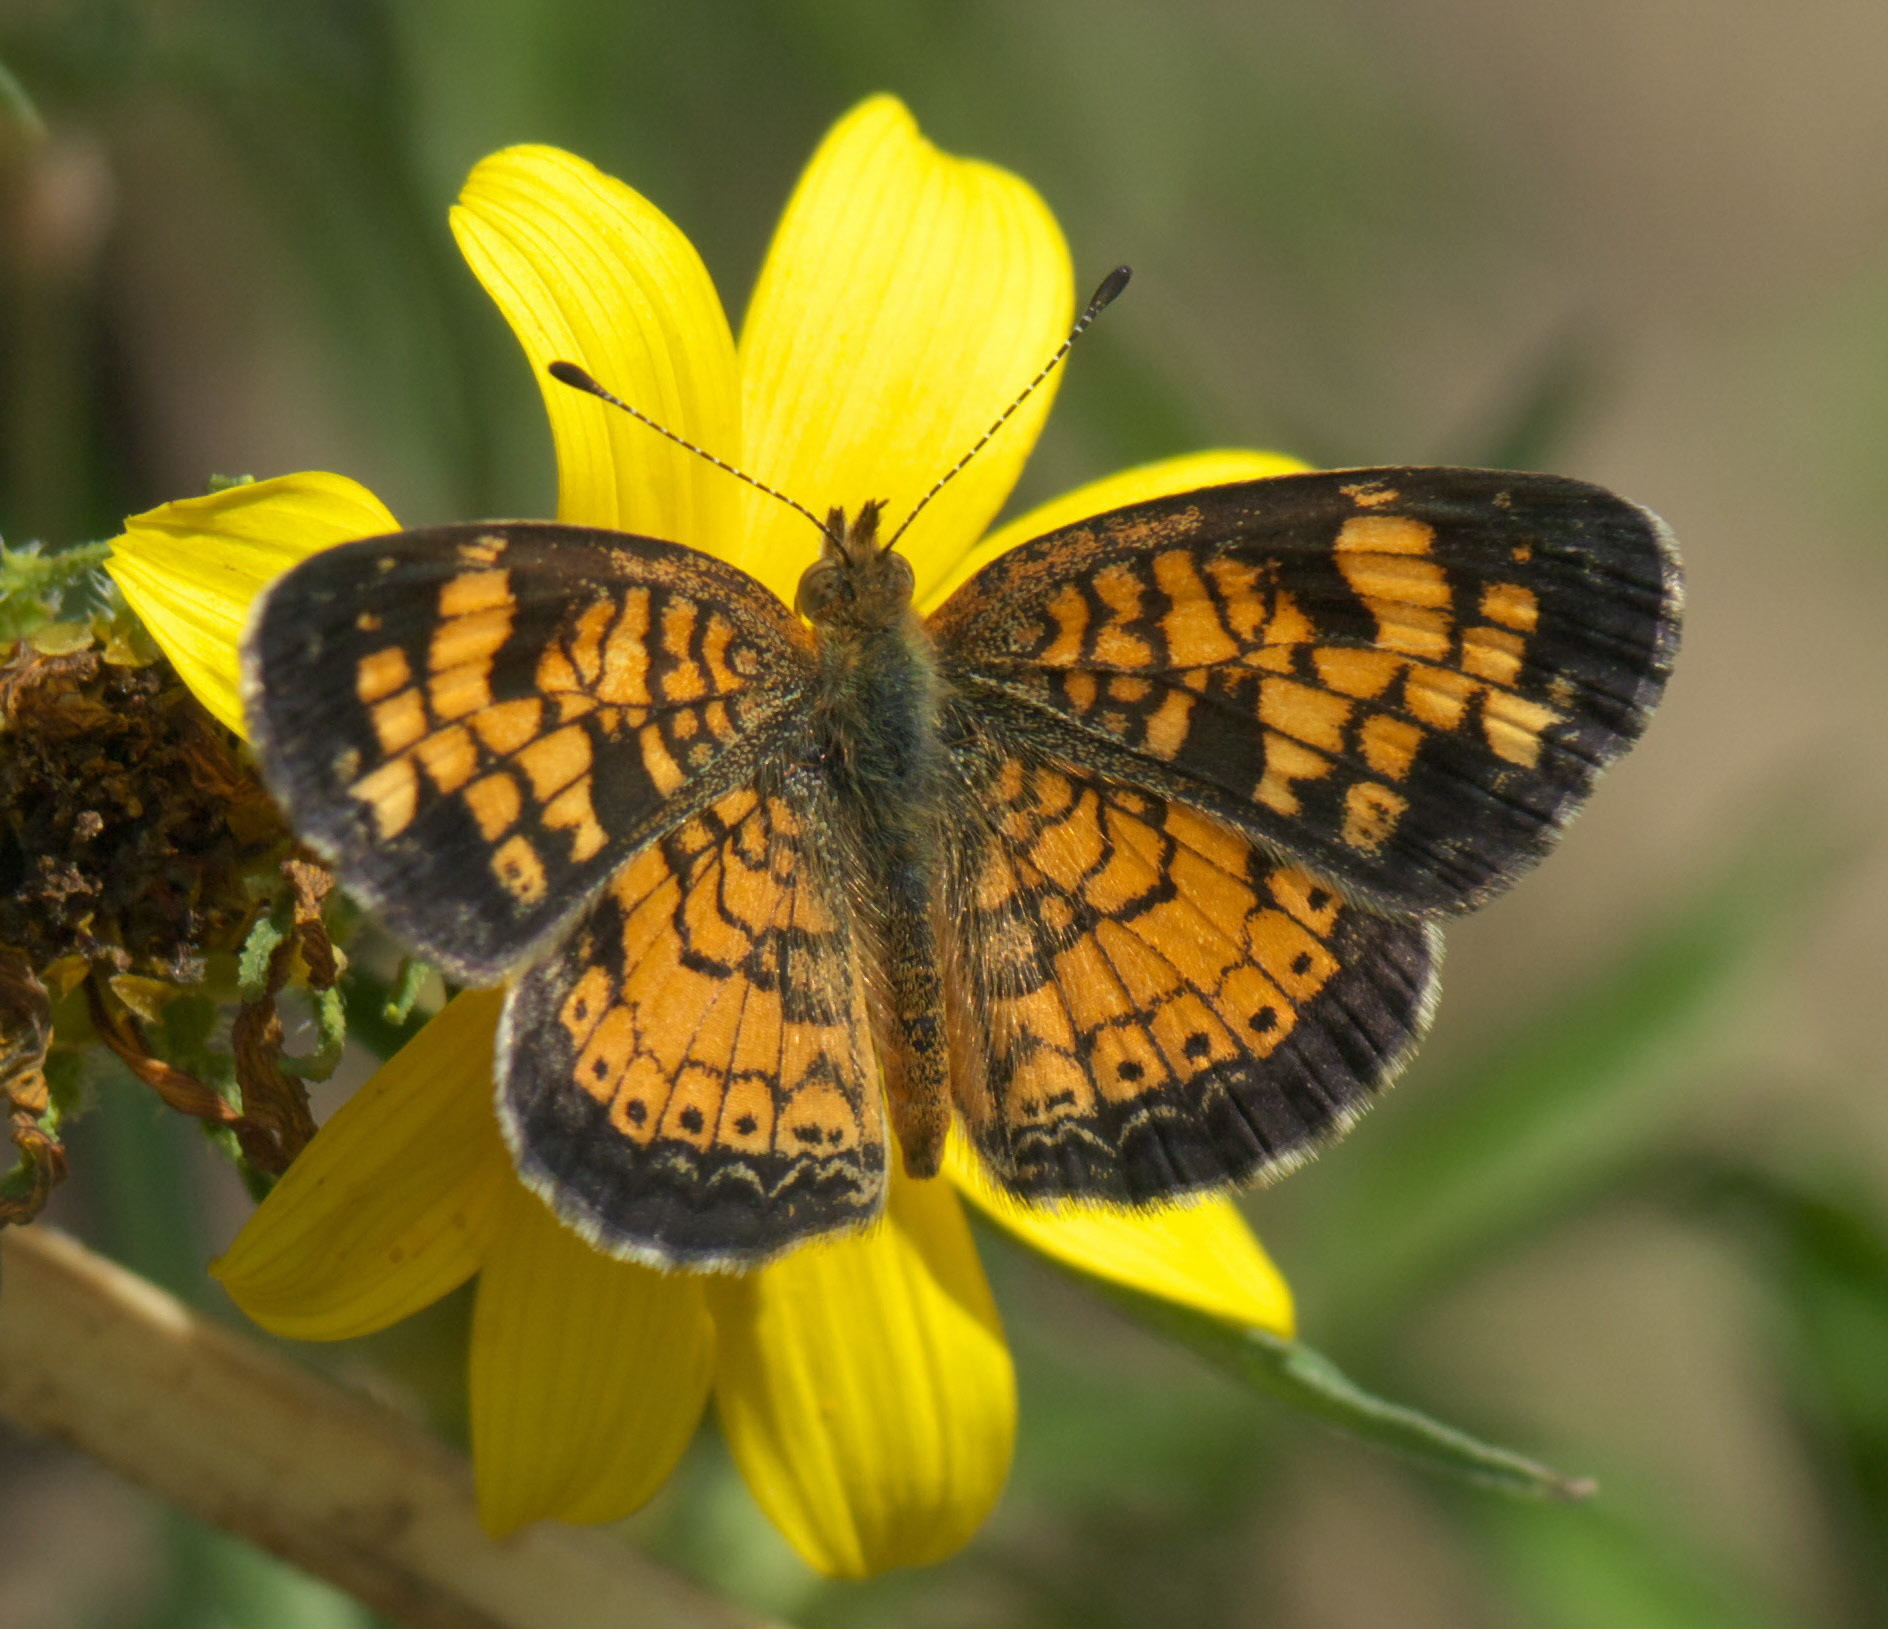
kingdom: Animalia
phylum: Arthropoda
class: Insecta
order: Lepidoptera
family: Nymphalidae
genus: Phyciodes
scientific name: Phyciodes tharos
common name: Pearl crescent
